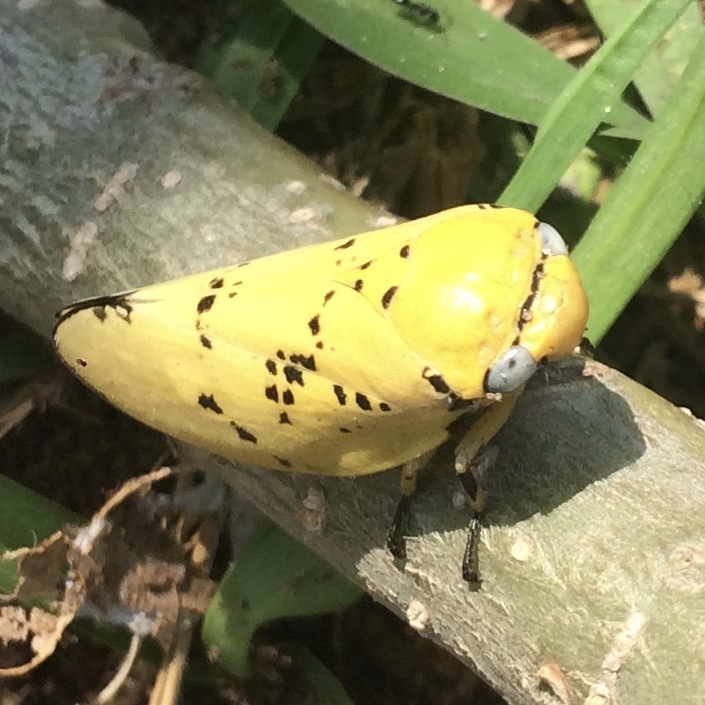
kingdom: Animalia
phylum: Arthropoda
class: Insecta
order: Hemiptera
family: Aphrophoridae
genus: Ptyelus
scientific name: Ptyelus flavescens
